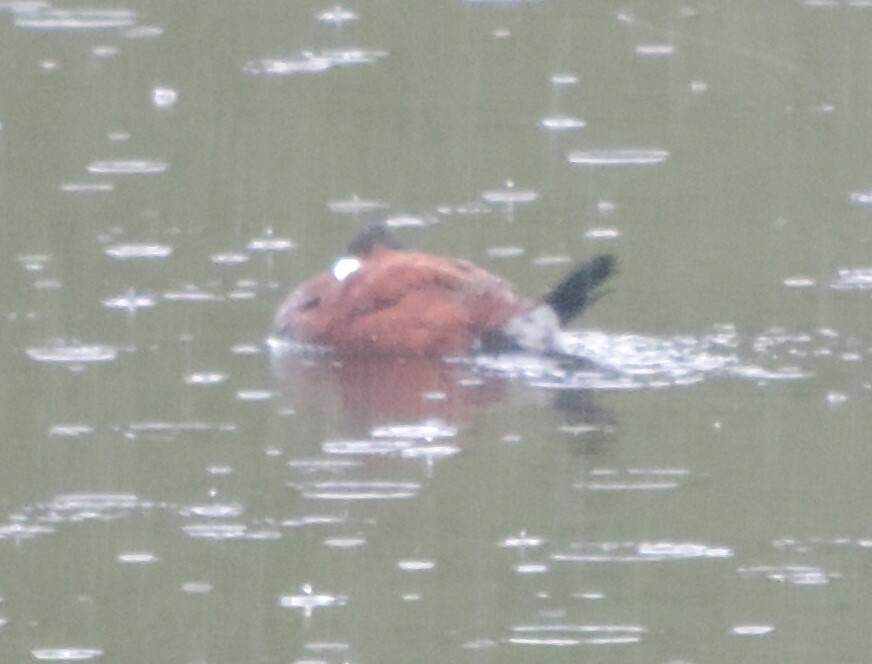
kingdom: Animalia
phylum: Chordata
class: Aves
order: Anseriformes
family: Anatidae
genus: Oxyura
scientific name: Oxyura jamaicensis
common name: Ruddy duck
